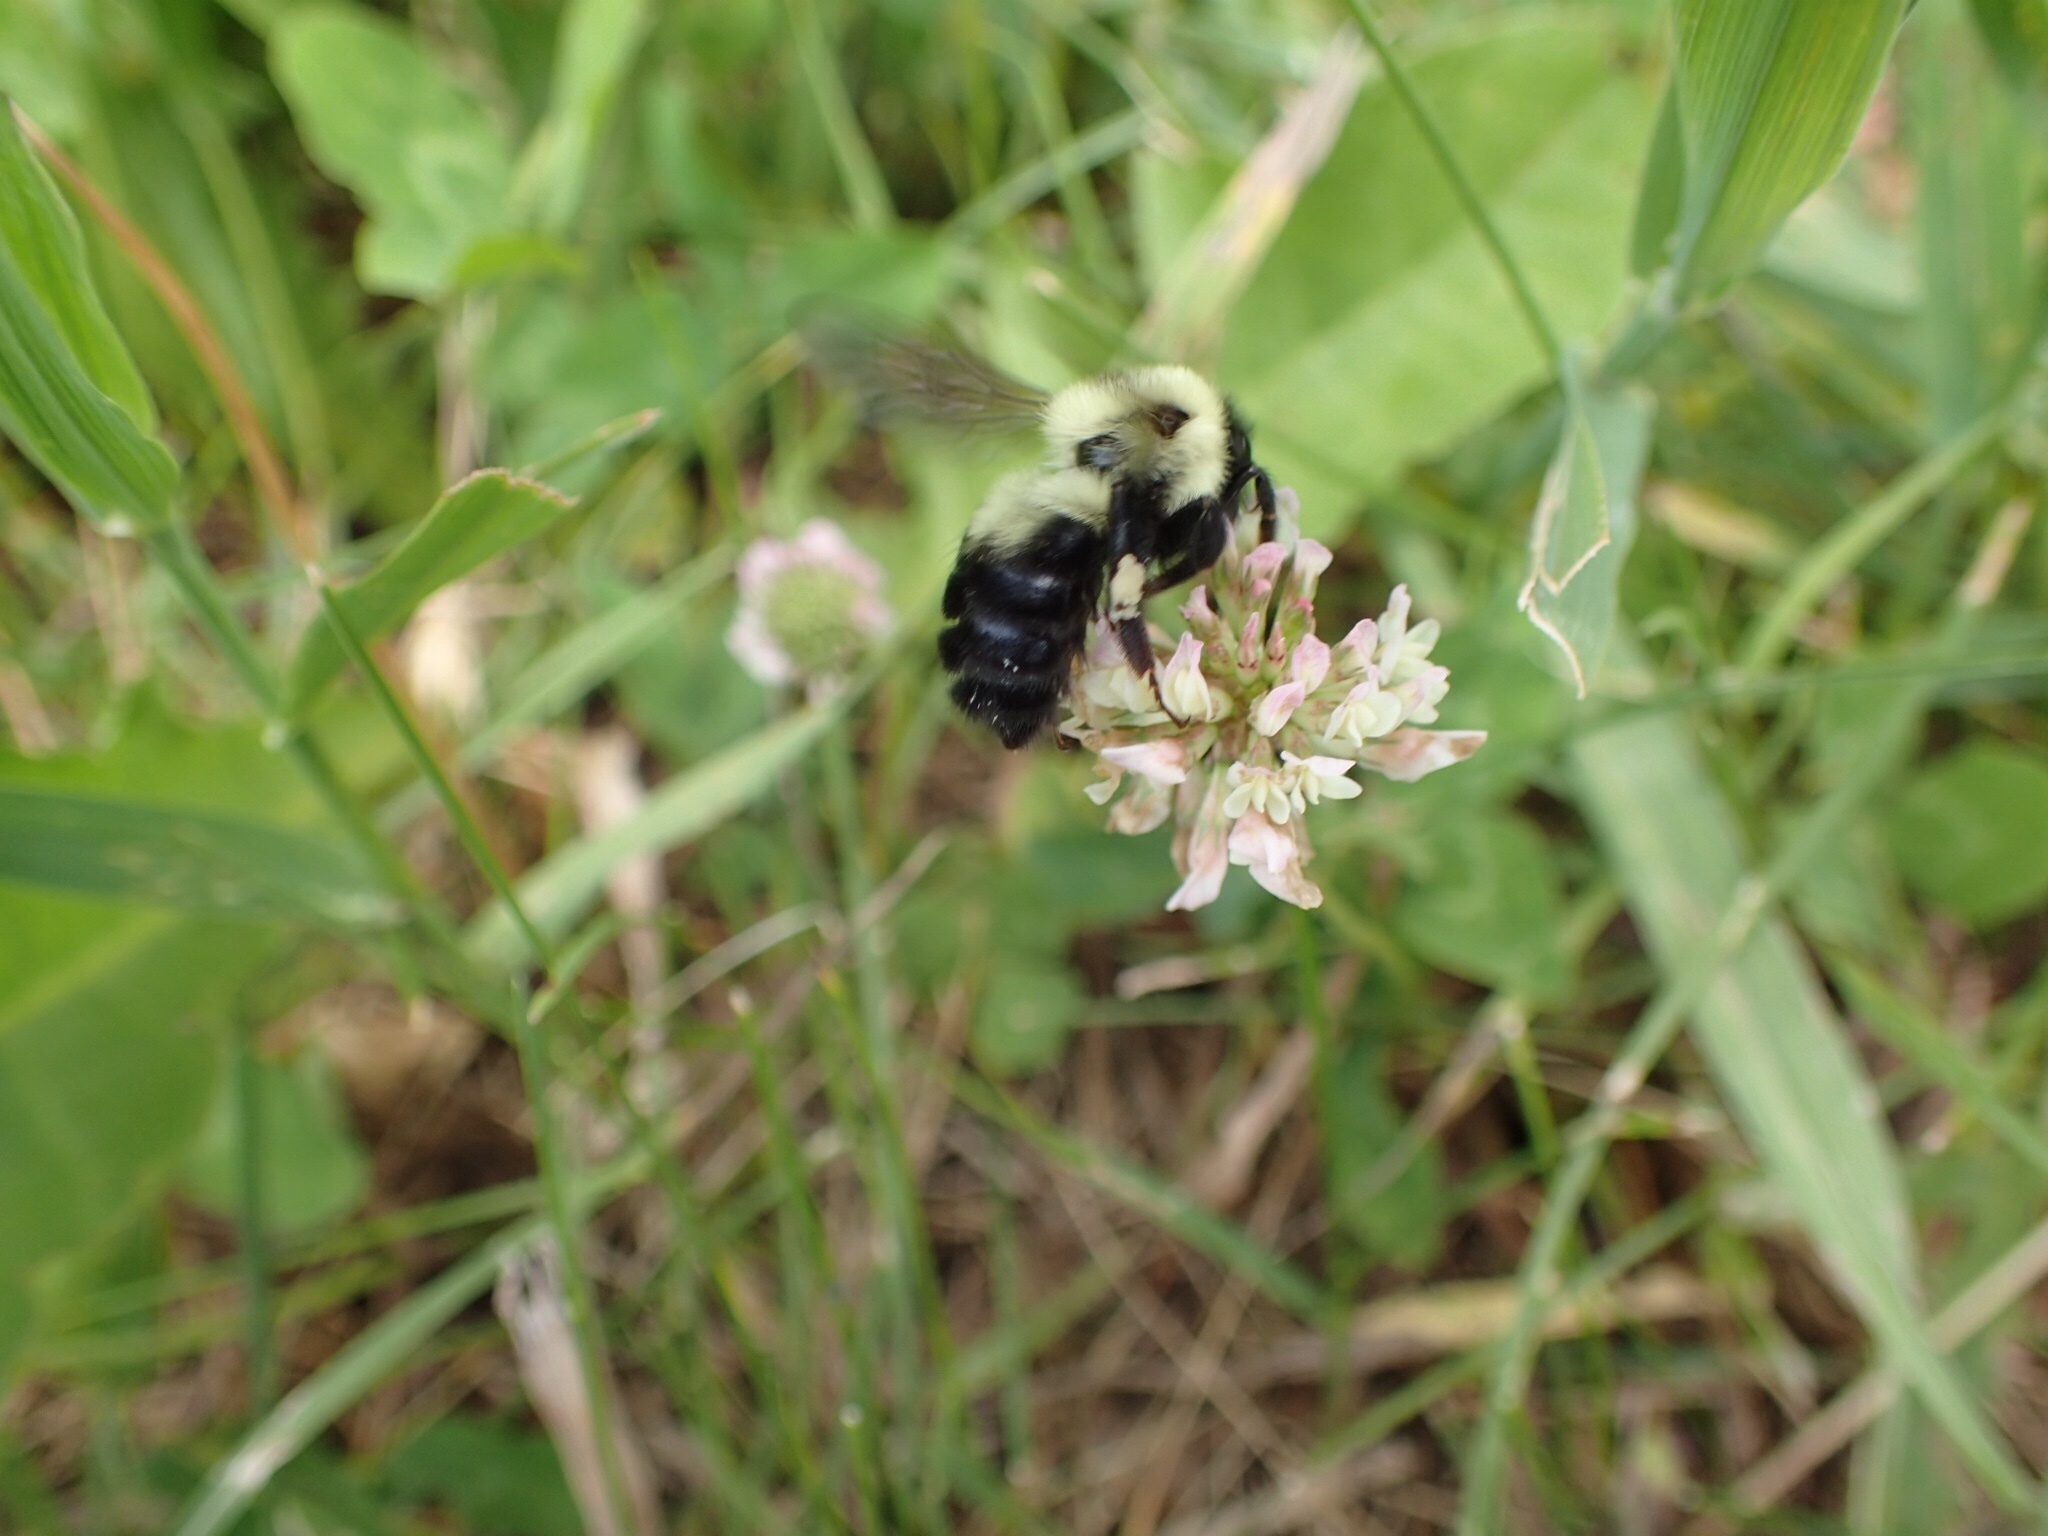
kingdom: Animalia
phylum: Arthropoda
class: Insecta
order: Hymenoptera
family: Apidae
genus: Bombus
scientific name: Bombus bimaculatus
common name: Two-spotted bumble bee
